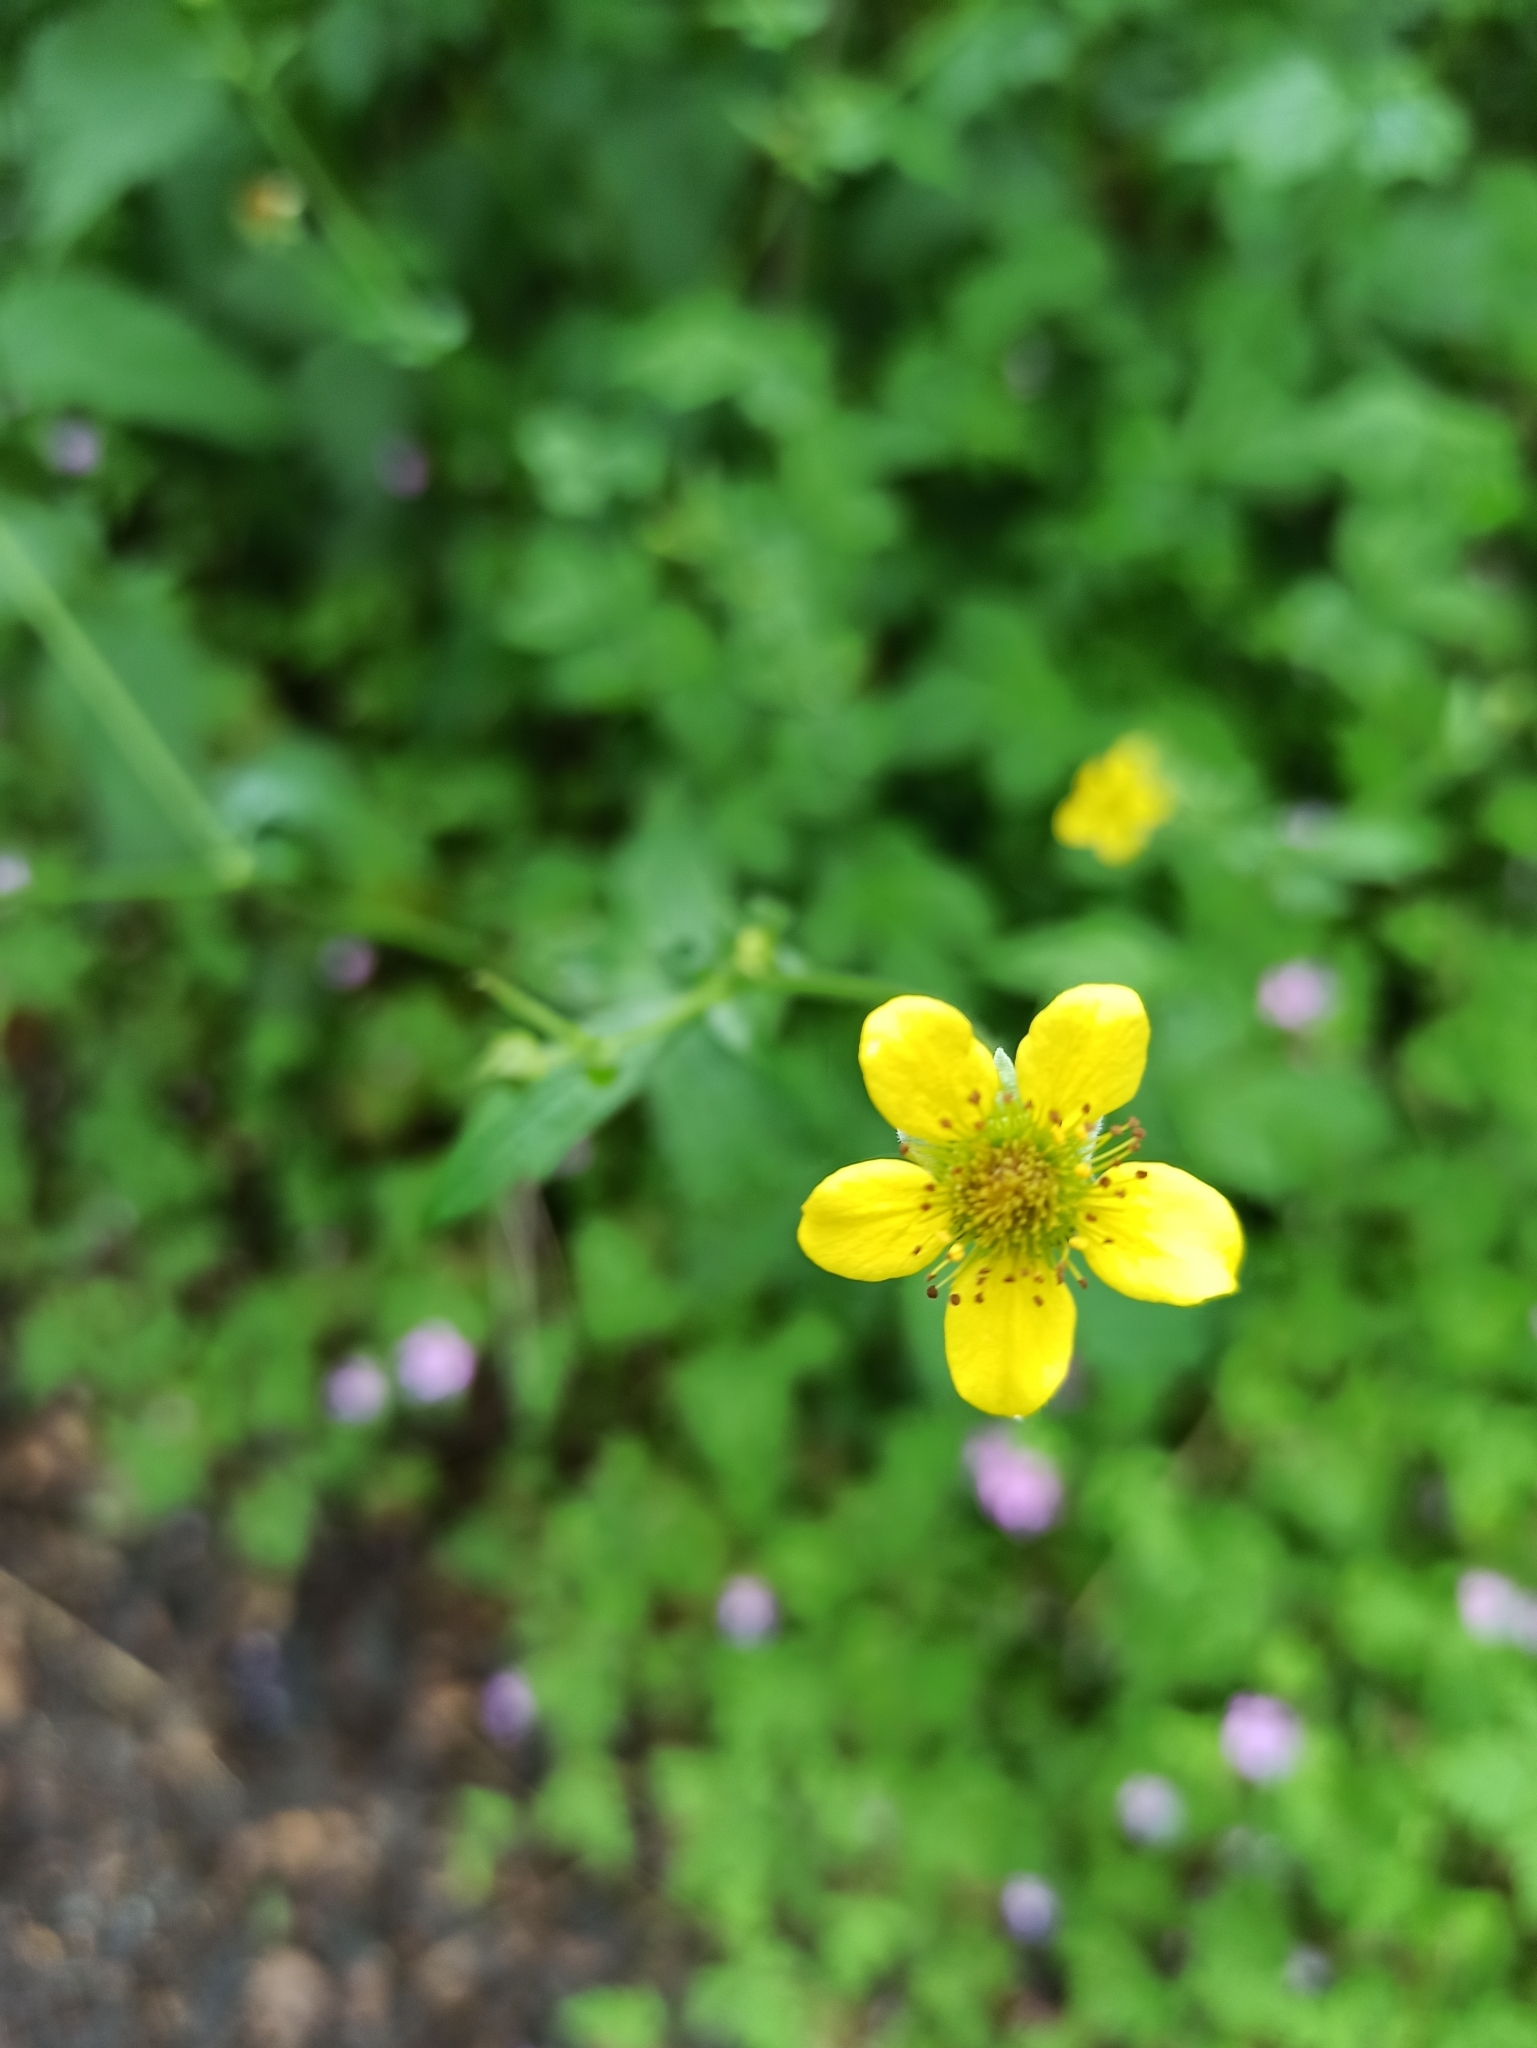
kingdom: Plantae
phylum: Tracheophyta
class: Magnoliopsida
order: Rosales
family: Rosaceae
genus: Geum
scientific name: Geum urbanum
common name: Wood avens
